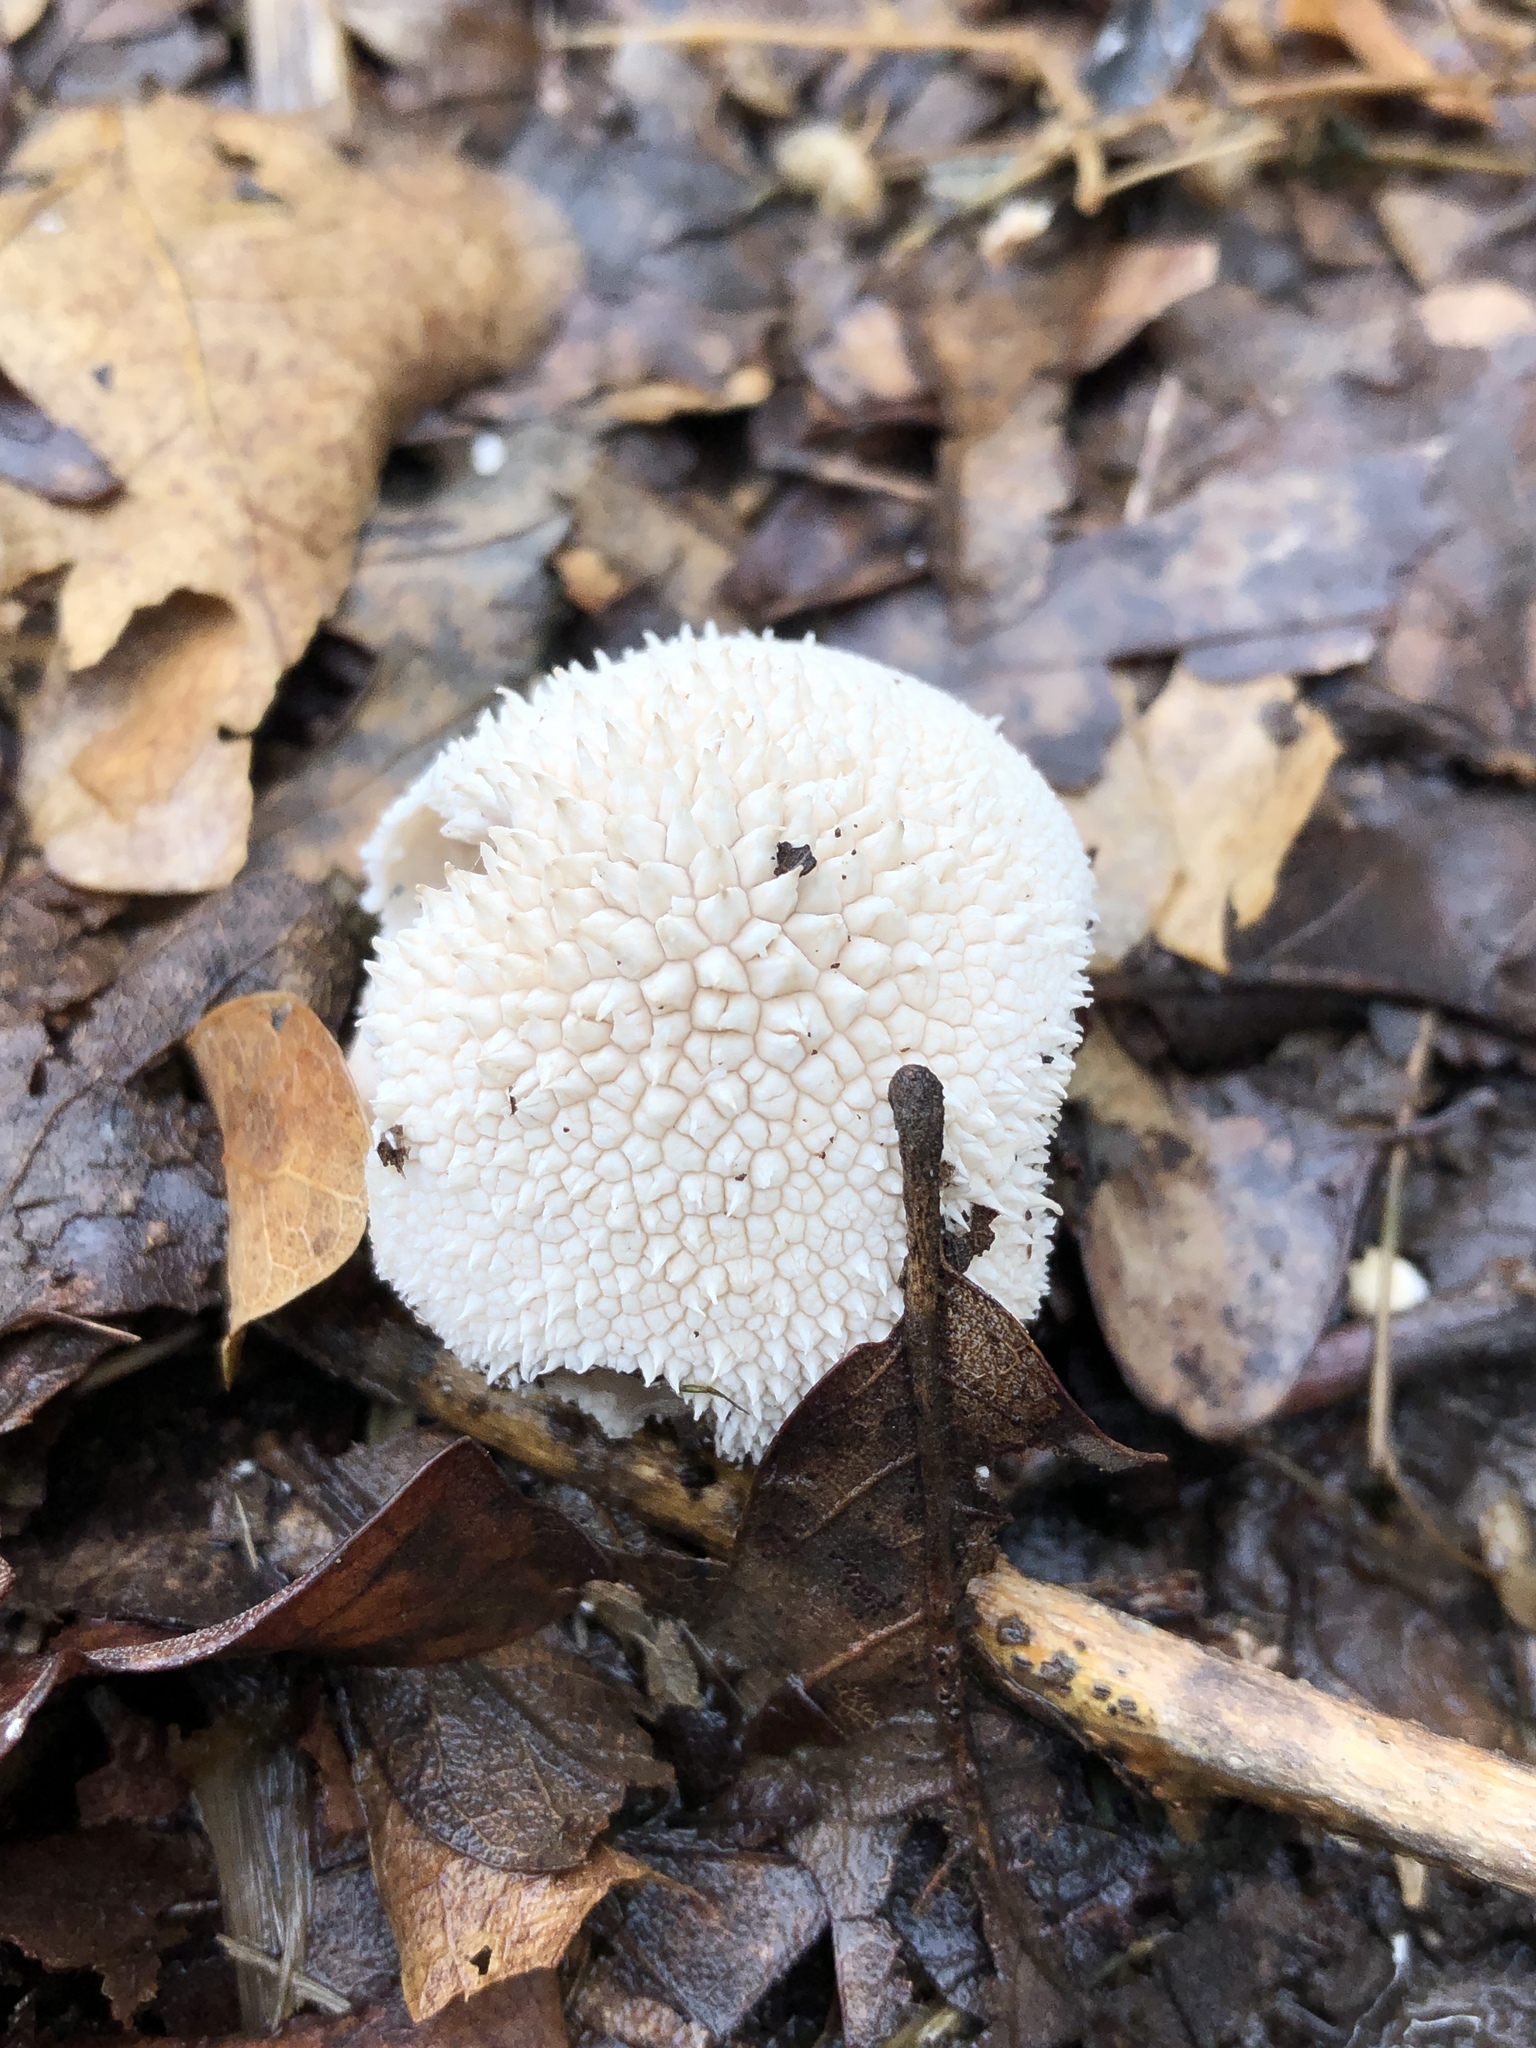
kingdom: Fungi
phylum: Basidiomycota
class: Agaricomycetes
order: Agaricales
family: Agaricaceae
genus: Lycoperdon
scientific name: Lycoperdon marginatum
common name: Peeling puffball
